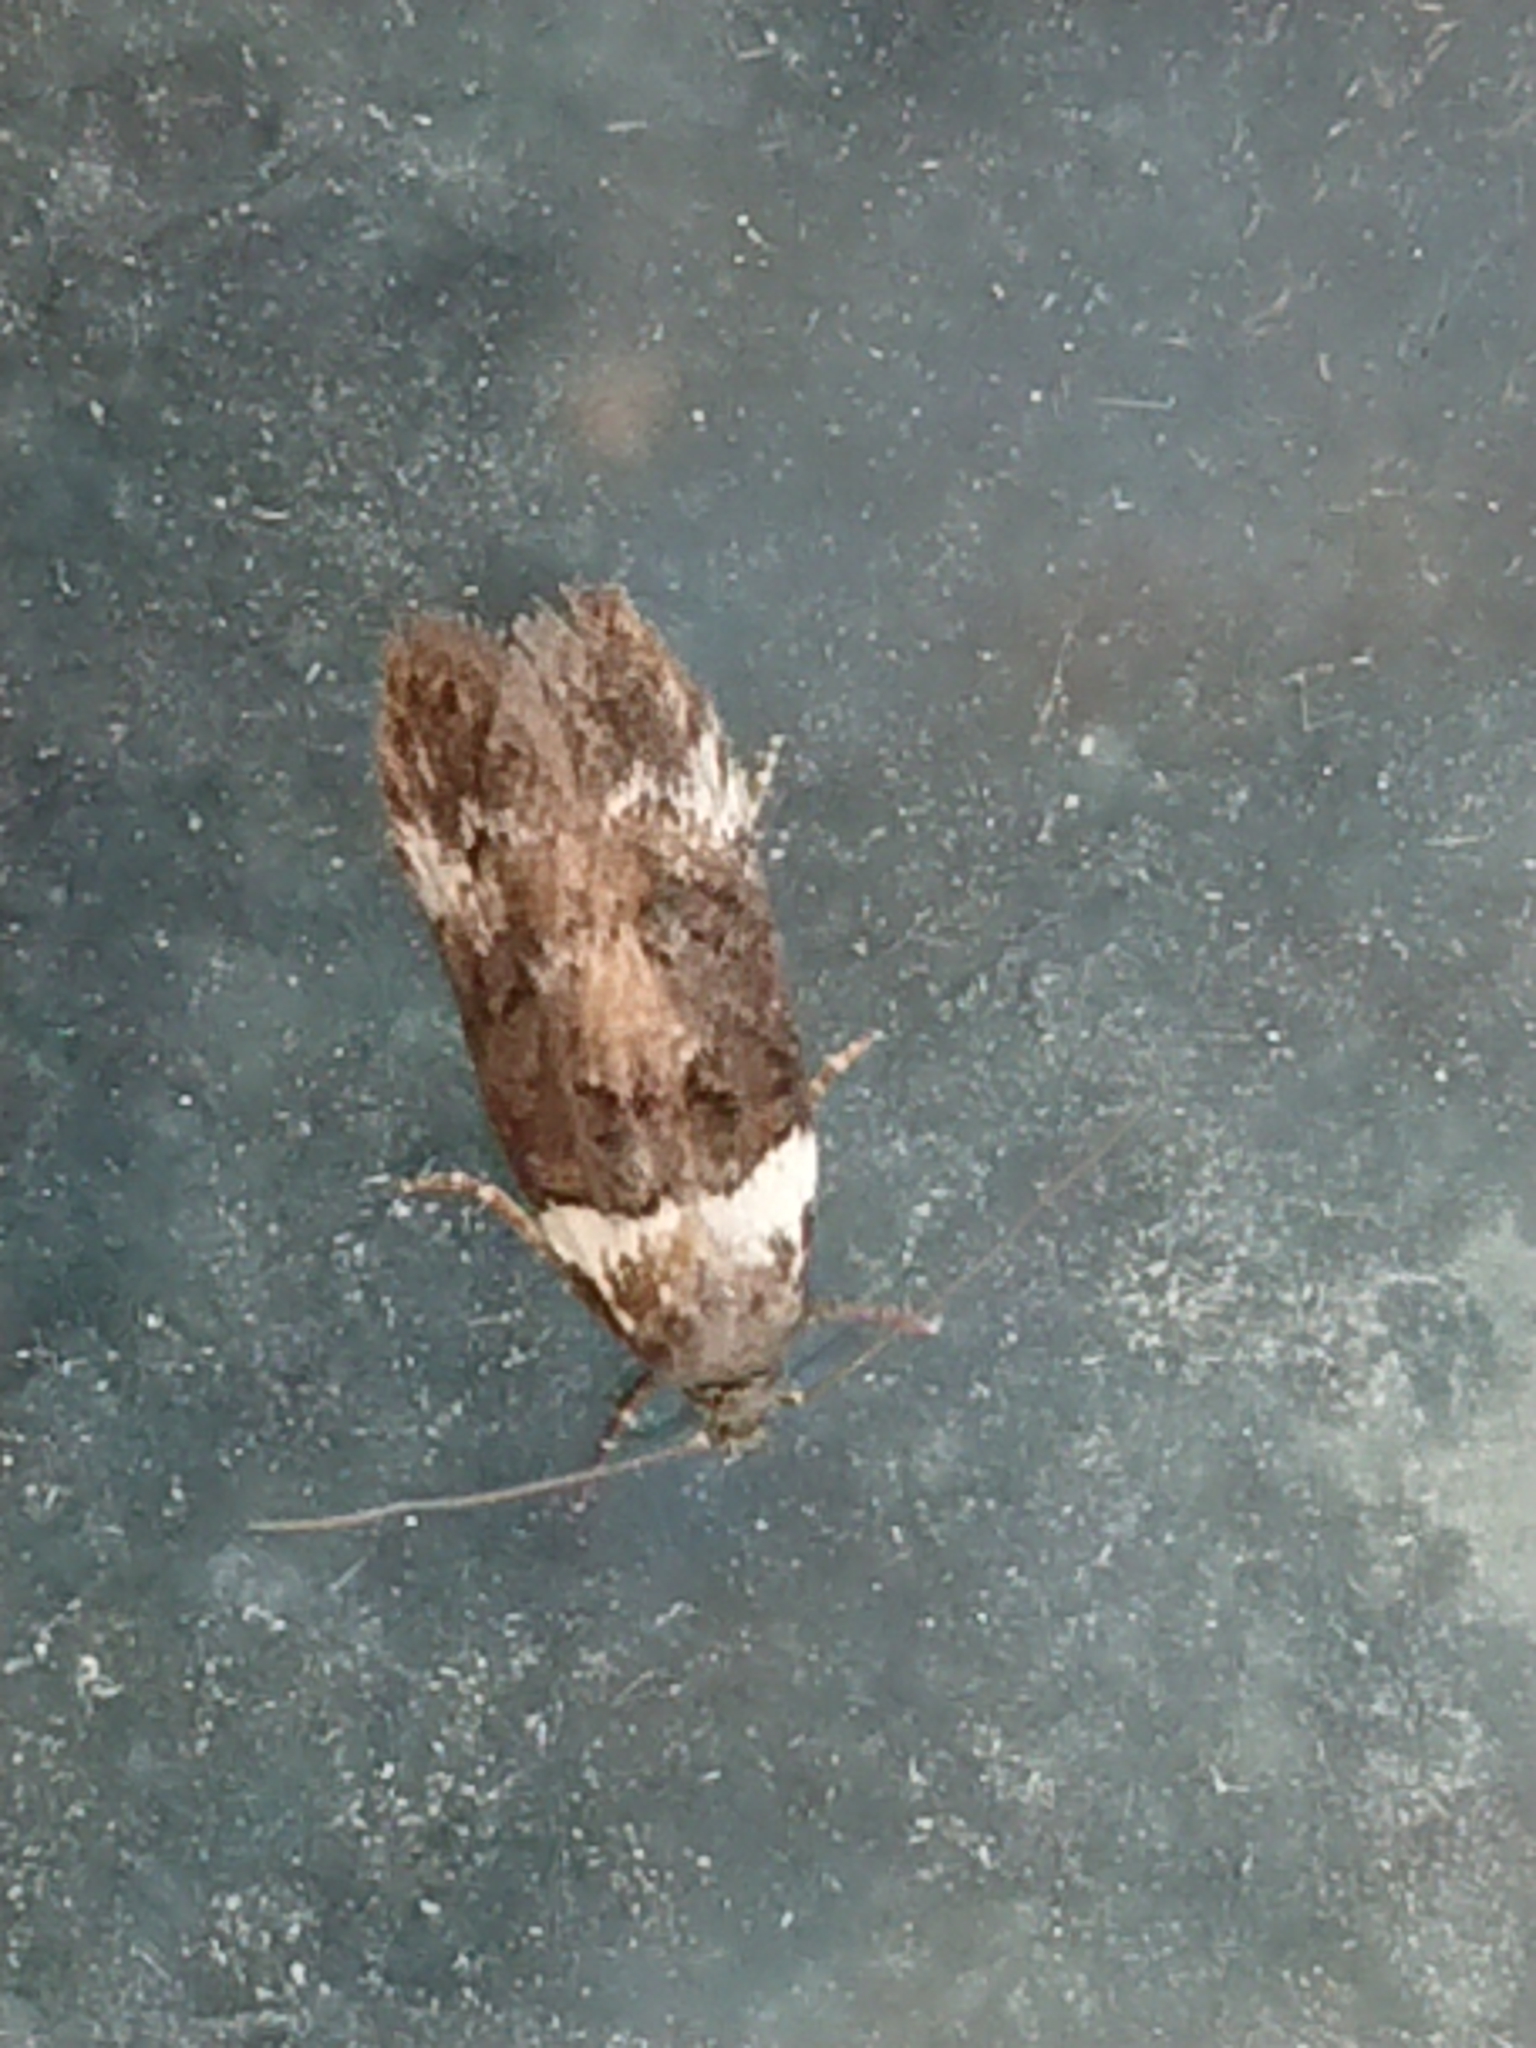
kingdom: Animalia
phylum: Arthropoda
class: Insecta
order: Lepidoptera
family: Oecophoridae
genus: Trachypepla
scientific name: Trachypepla conspicuella
